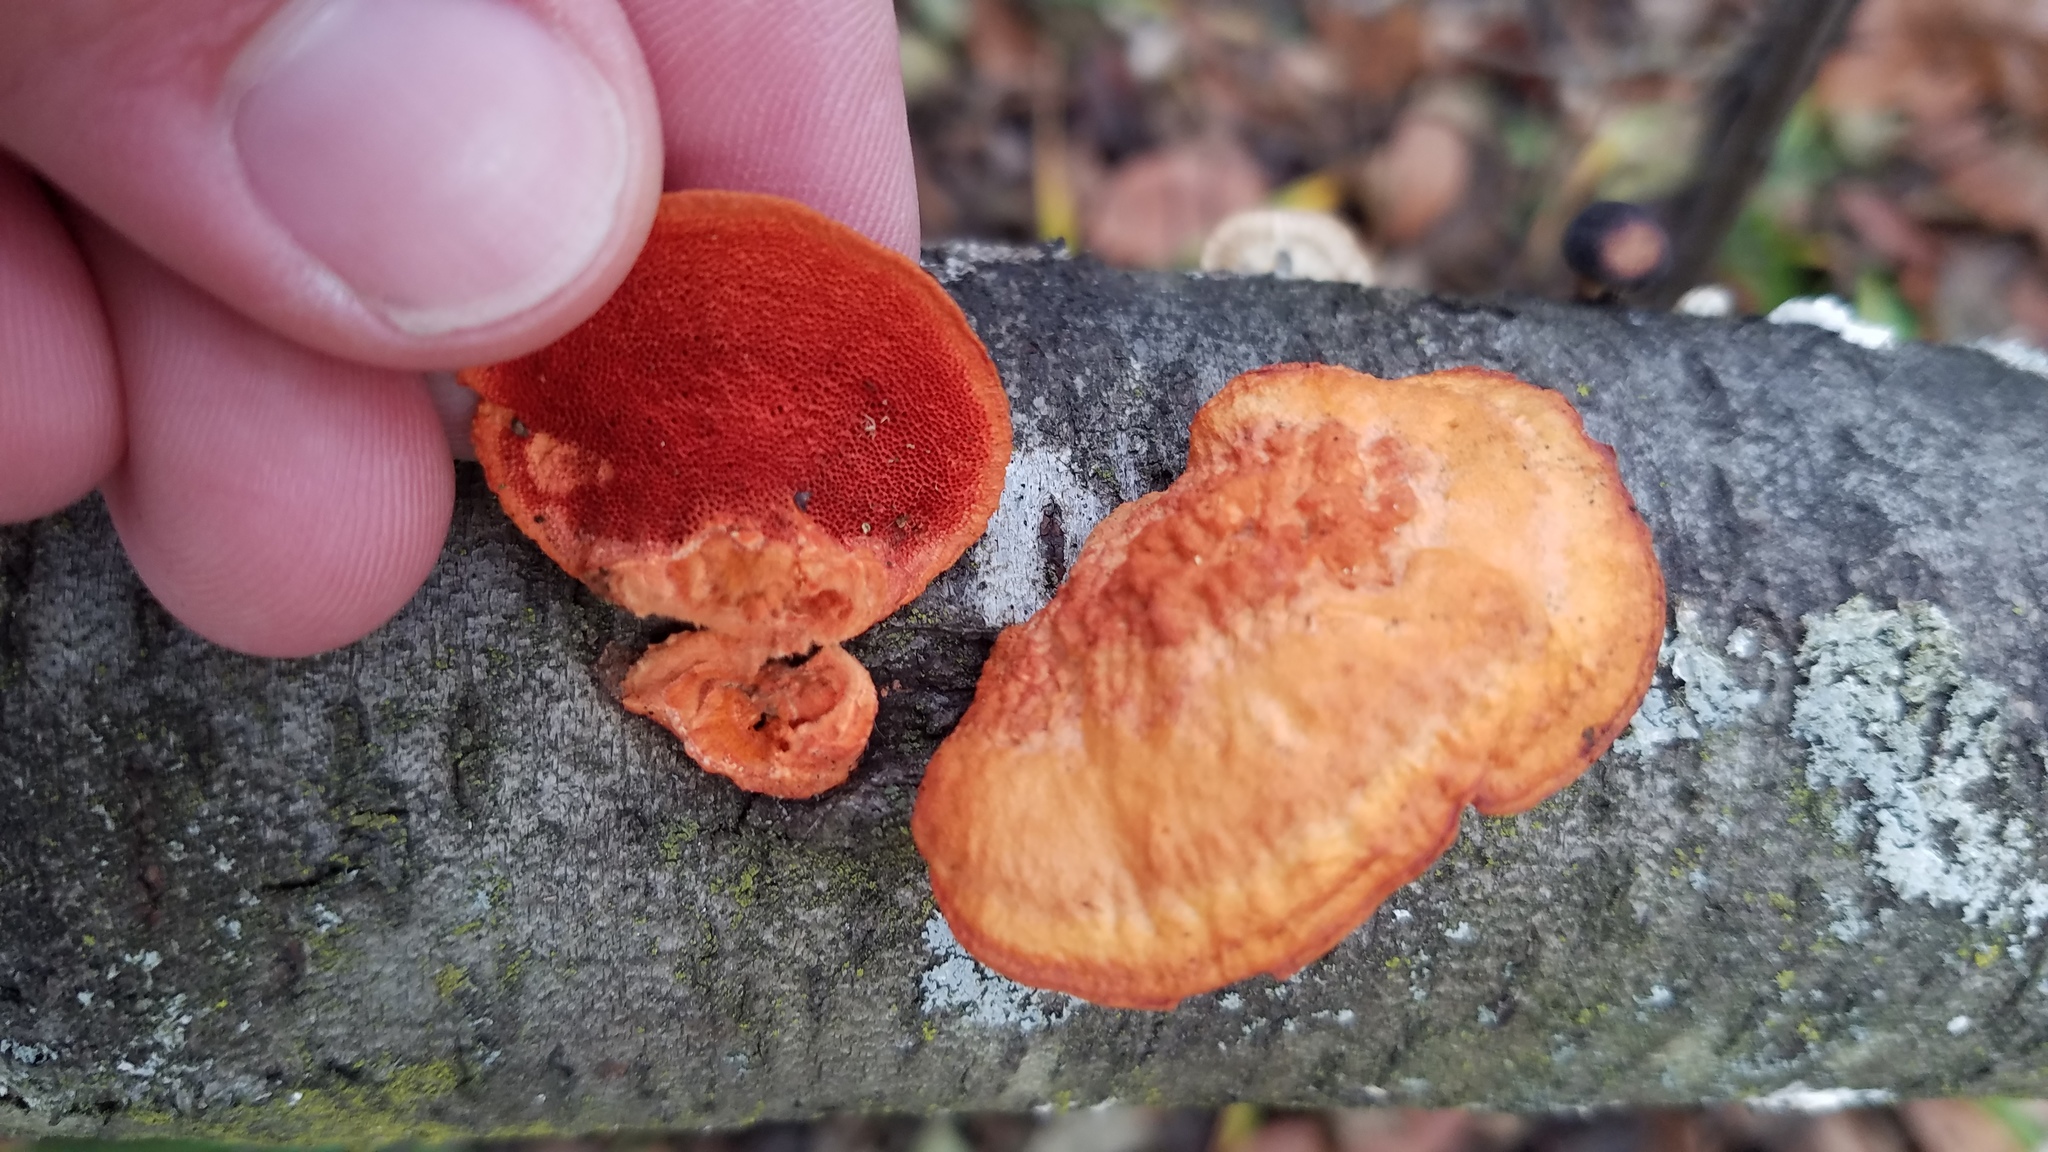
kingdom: Fungi
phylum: Basidiomycota
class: Agaricomycetes
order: Polyporales
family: Polyporaceae
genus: Trametes
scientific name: Trametes cinnabarina
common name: Northern cinnabar polypore
